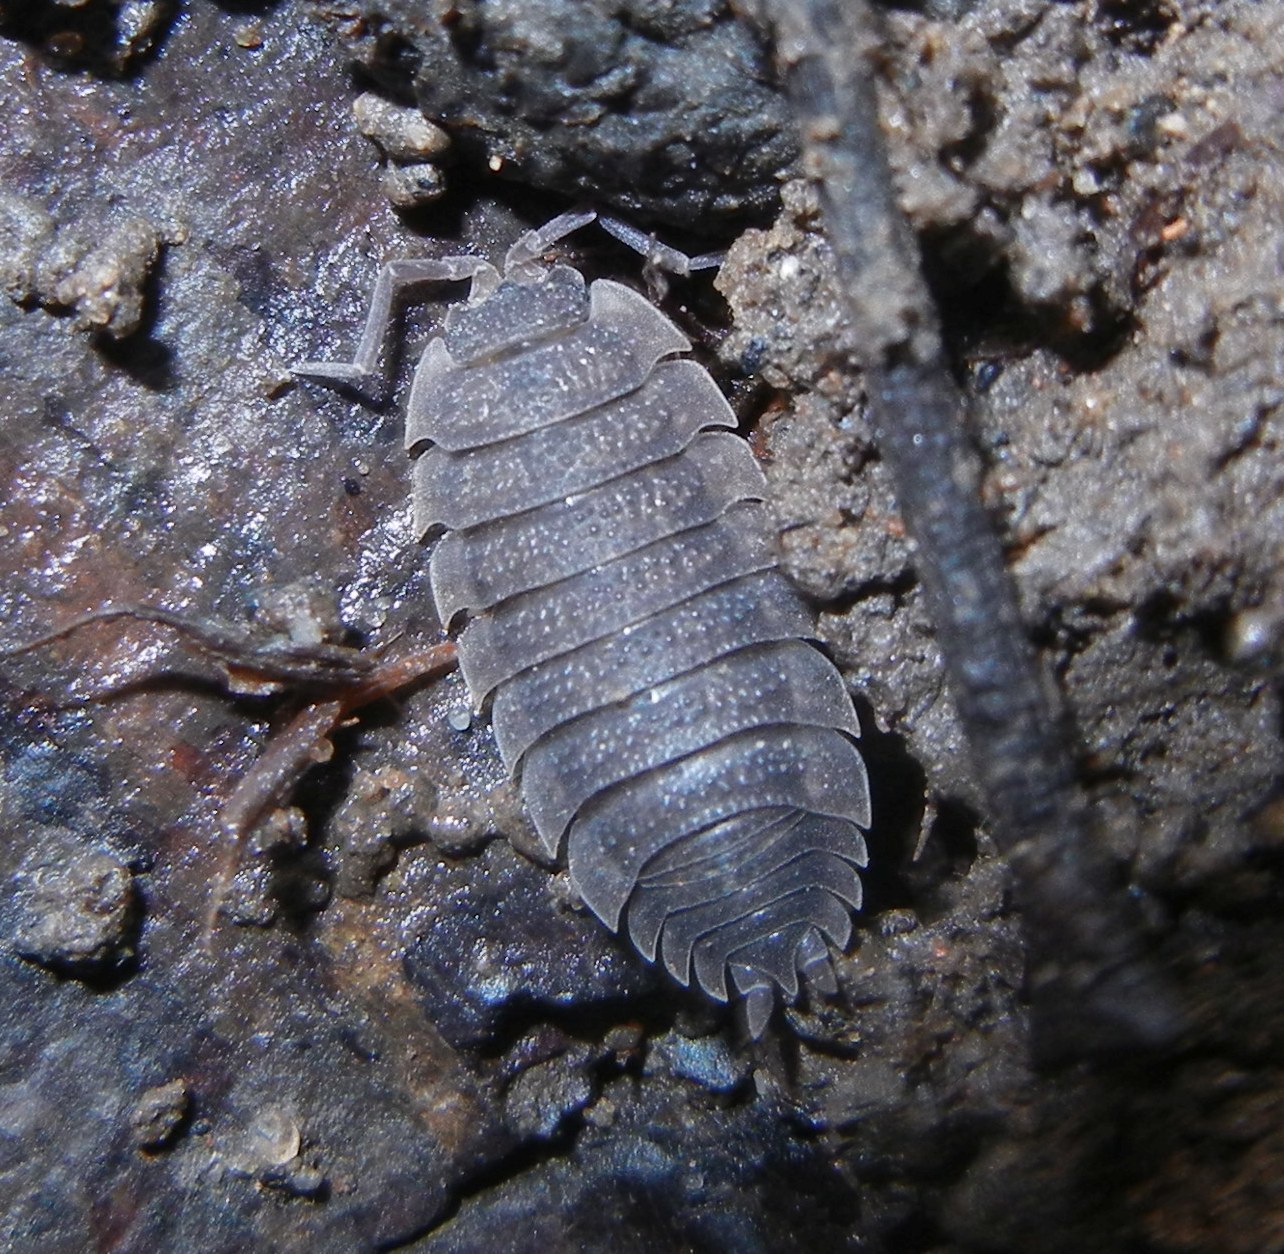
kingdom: Animalia
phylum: Arthropoda
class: Malacostraca
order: Isopoda
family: Porcellionidae
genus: Porcellio
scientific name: Porcellio scaber
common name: Common rough woodlouse
